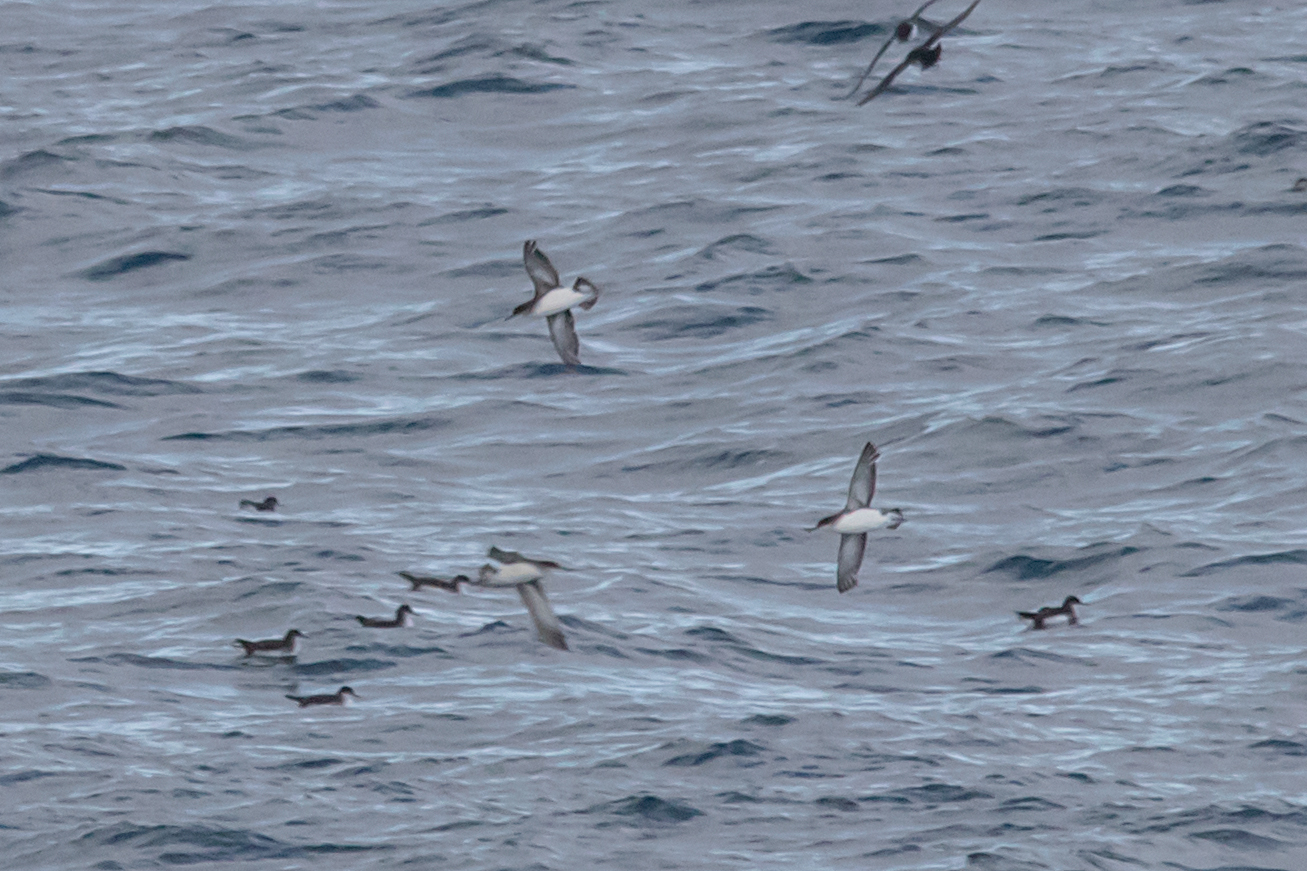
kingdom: Animalia
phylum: Chordata
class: Aves
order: Procellariiformes
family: Procellariidae
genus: Puffinus
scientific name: Puffinus gavia
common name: Fluttering shearwater
